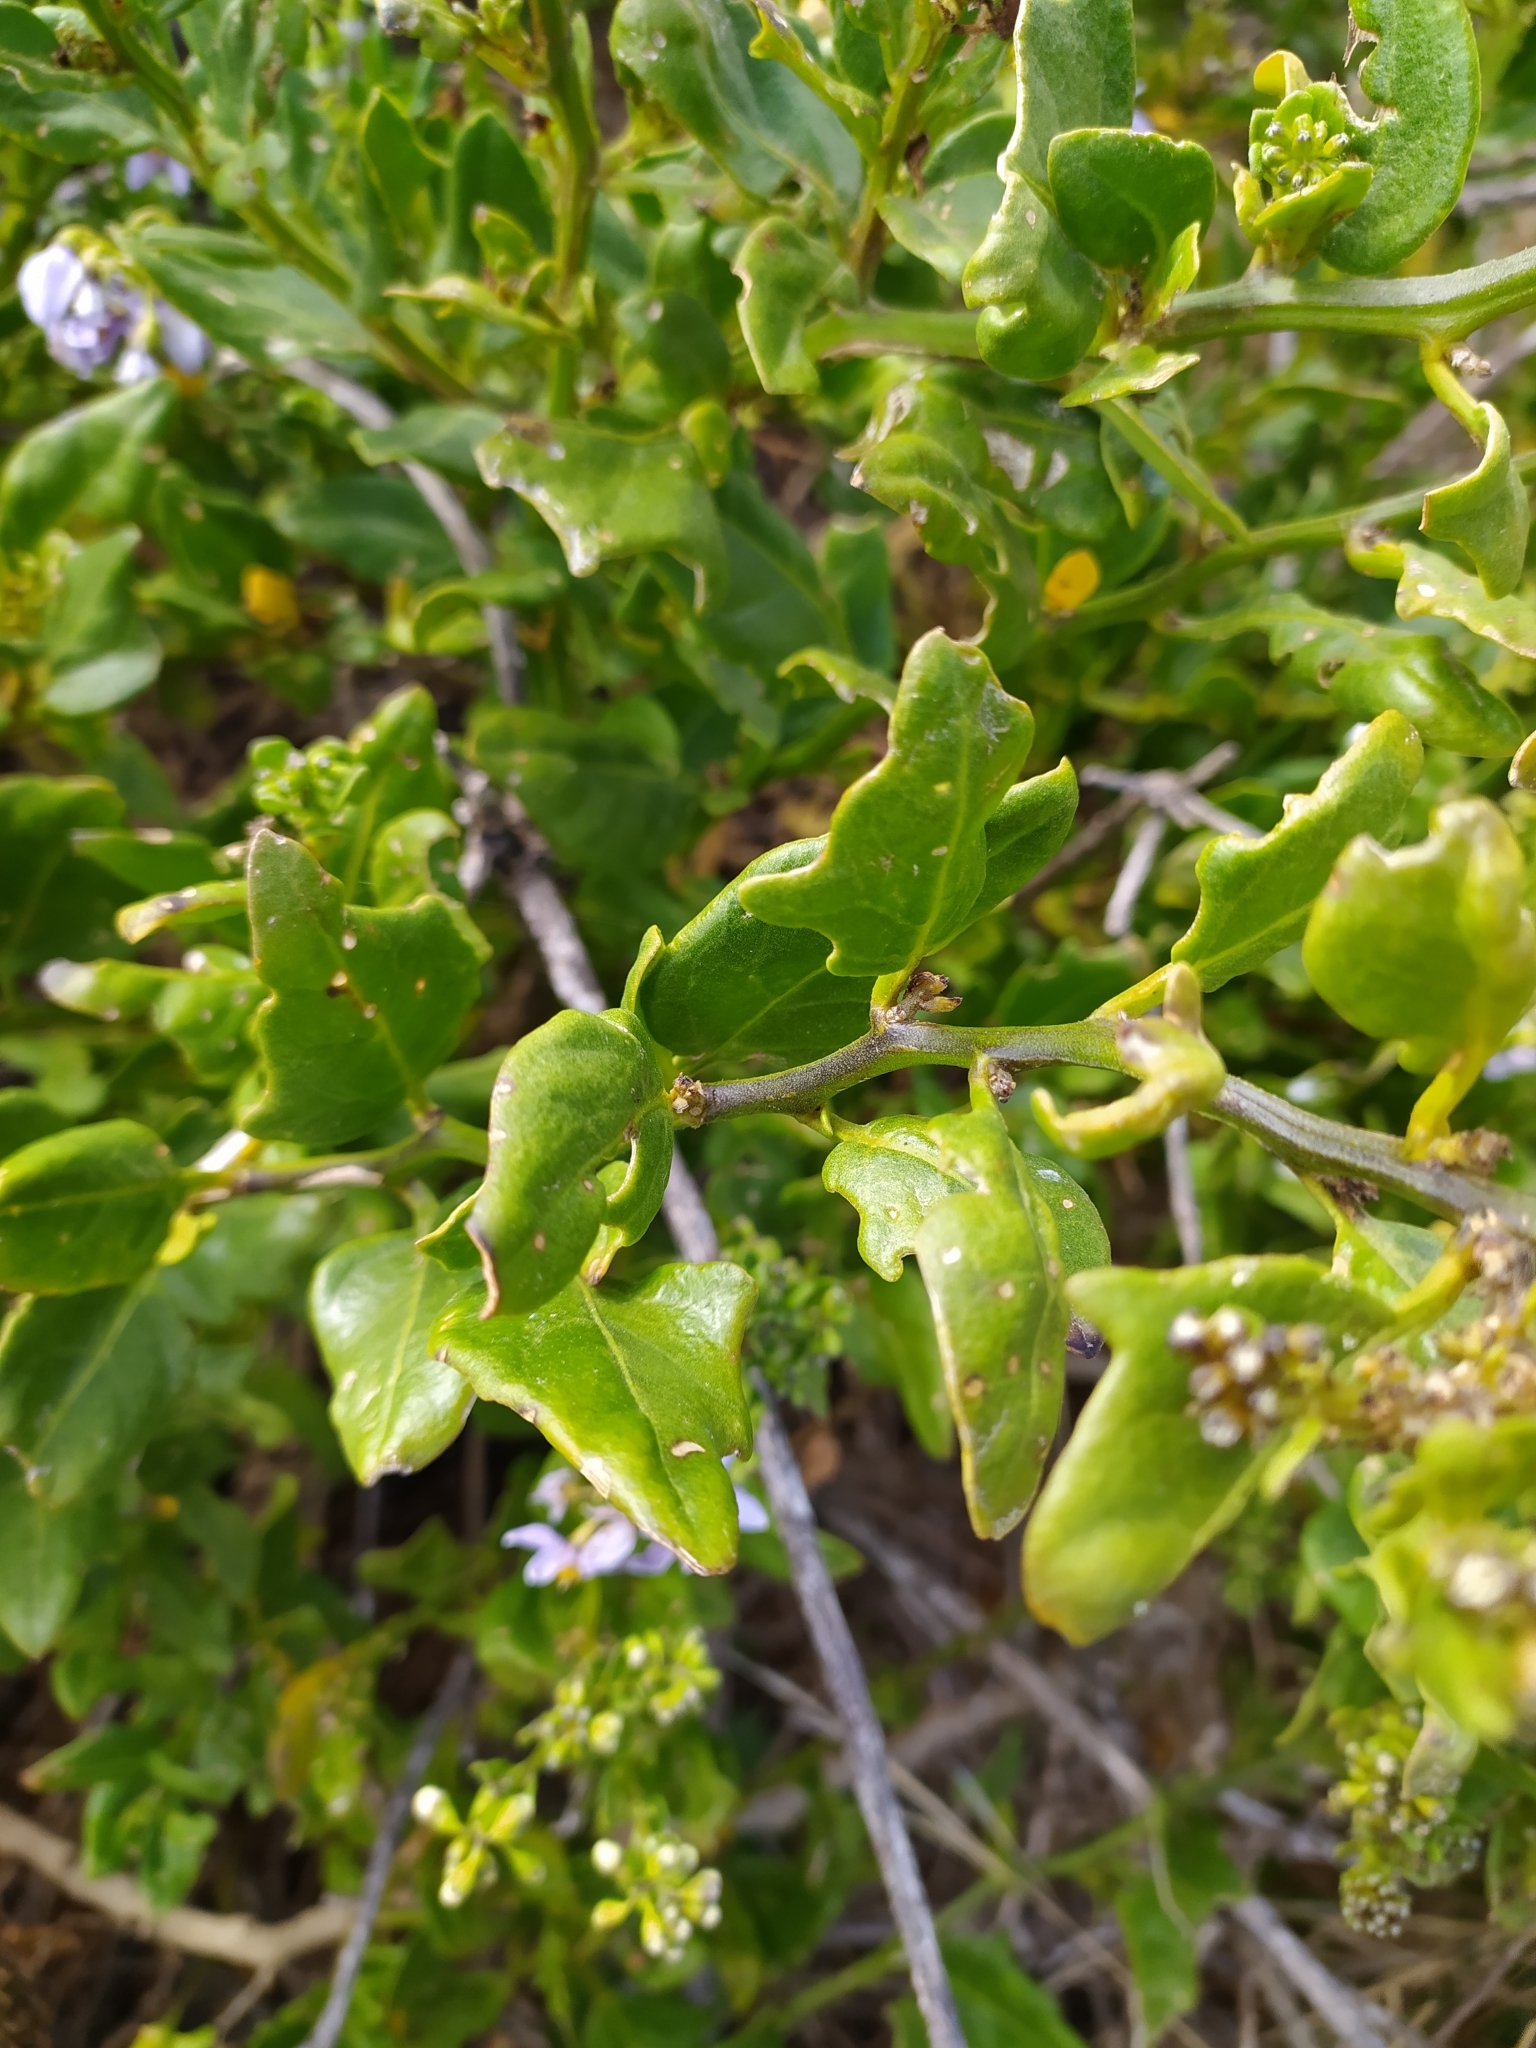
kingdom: Plantae
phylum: Tracheophyta
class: Magnoliopsida
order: Solanales
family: Solanaceae
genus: Solanum
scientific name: Solanum africanum
